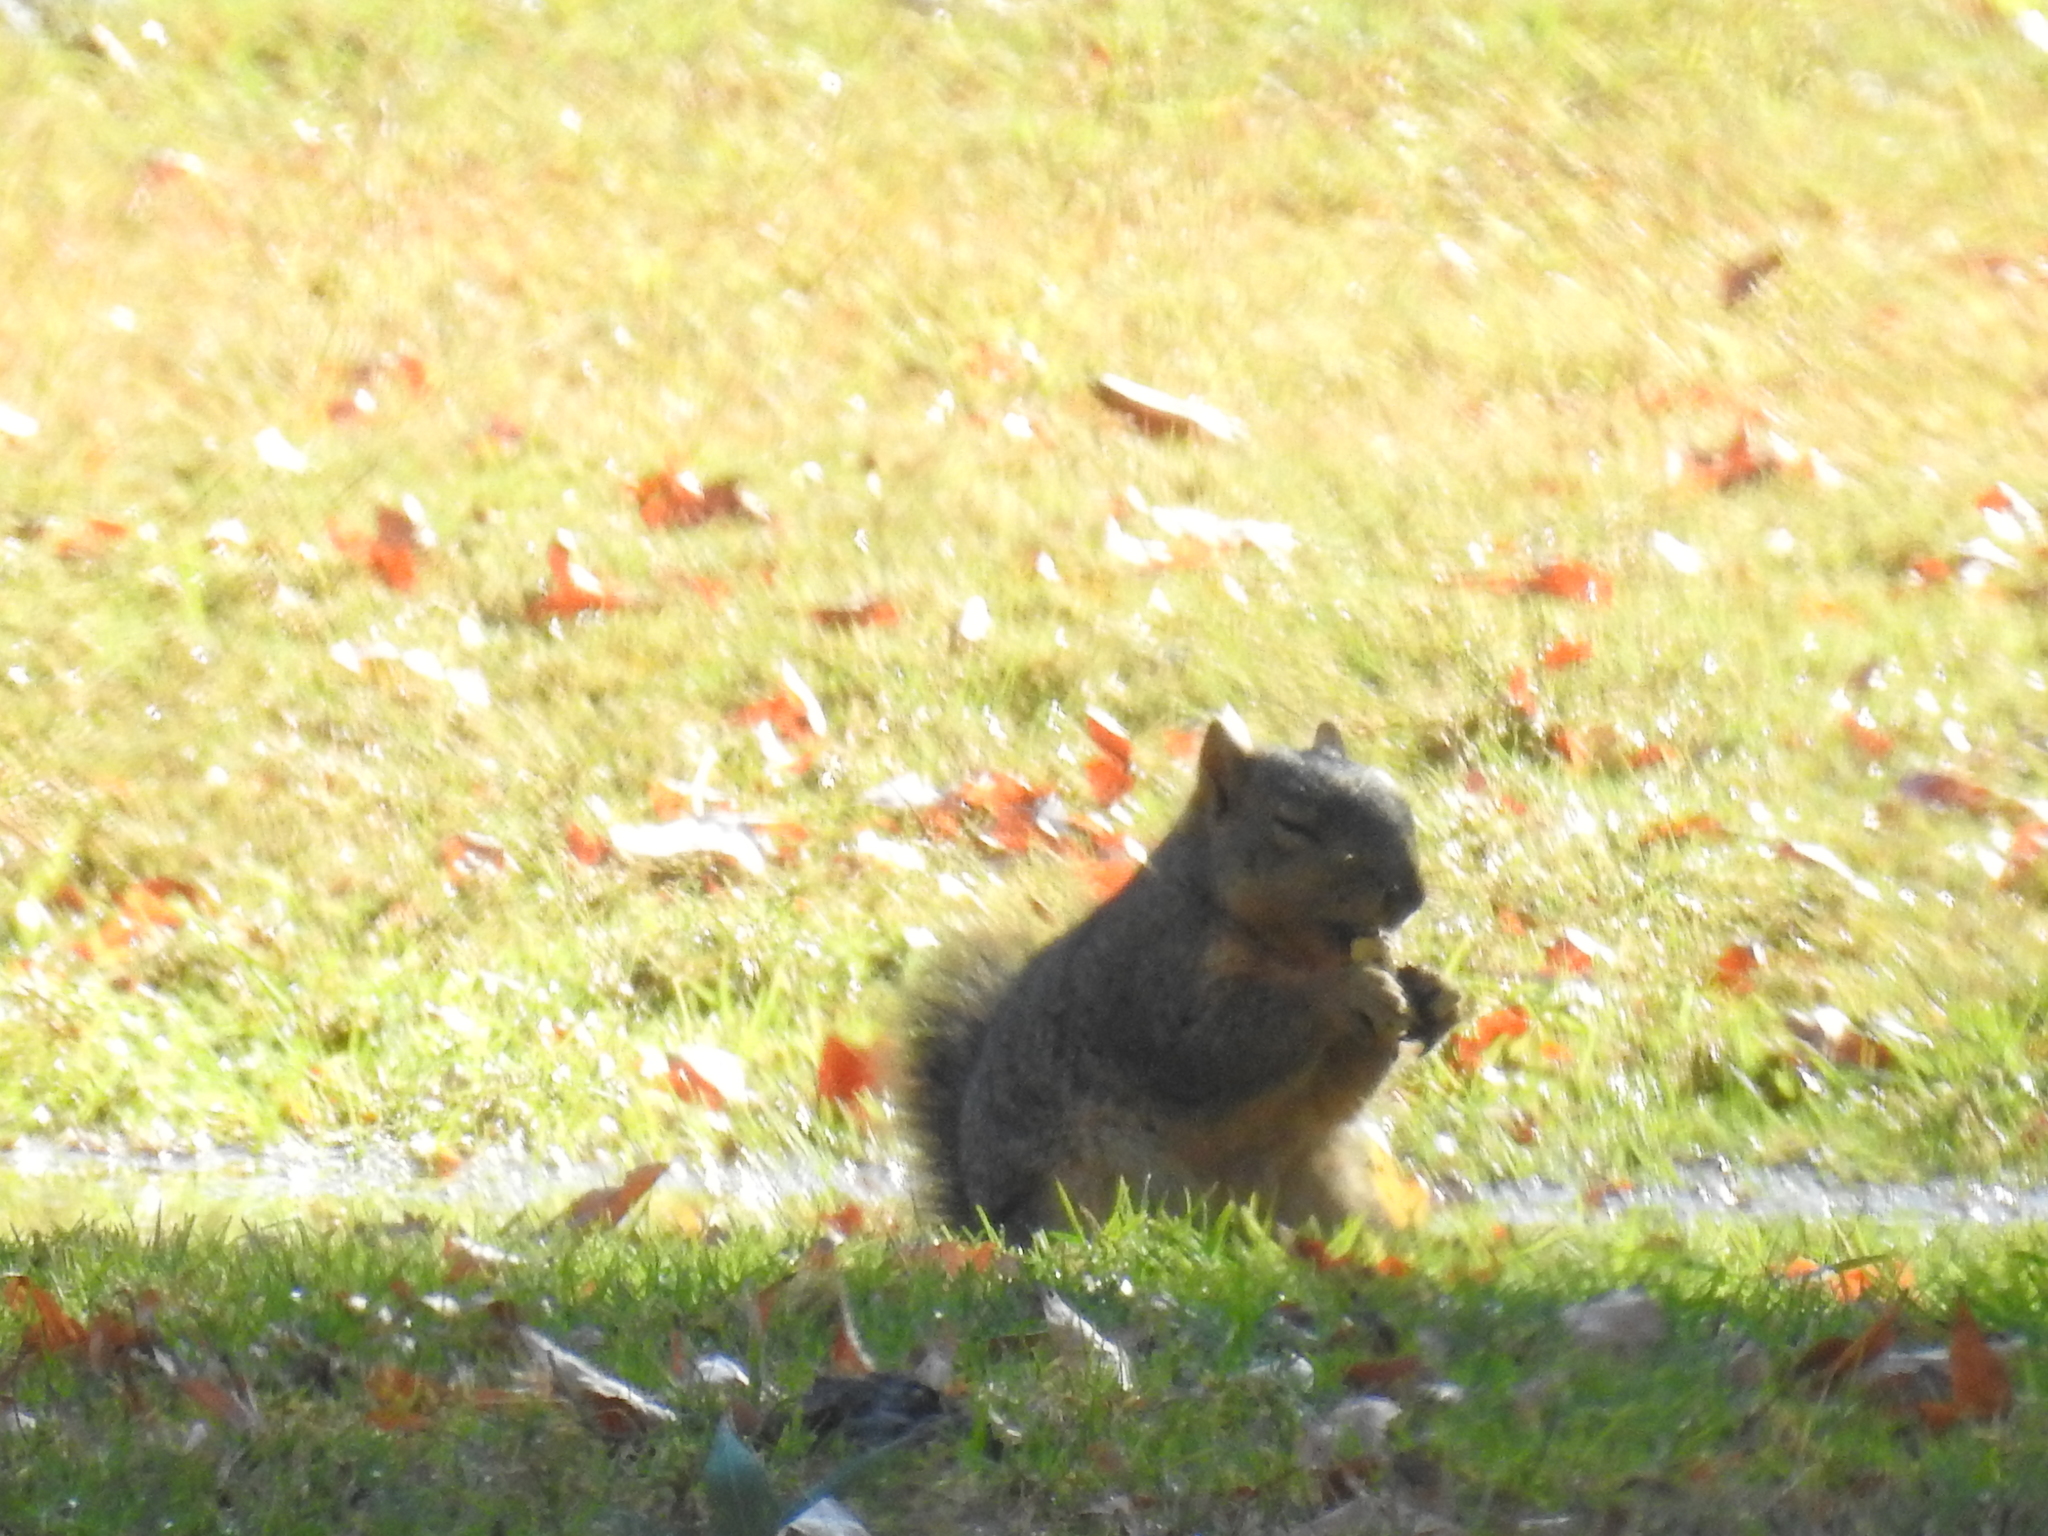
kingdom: Animalia
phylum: Chordata
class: Mammalia
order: Rodentia
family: Sciuridae
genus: Sciurus
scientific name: Sciurus niger
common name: Fox squirrel
